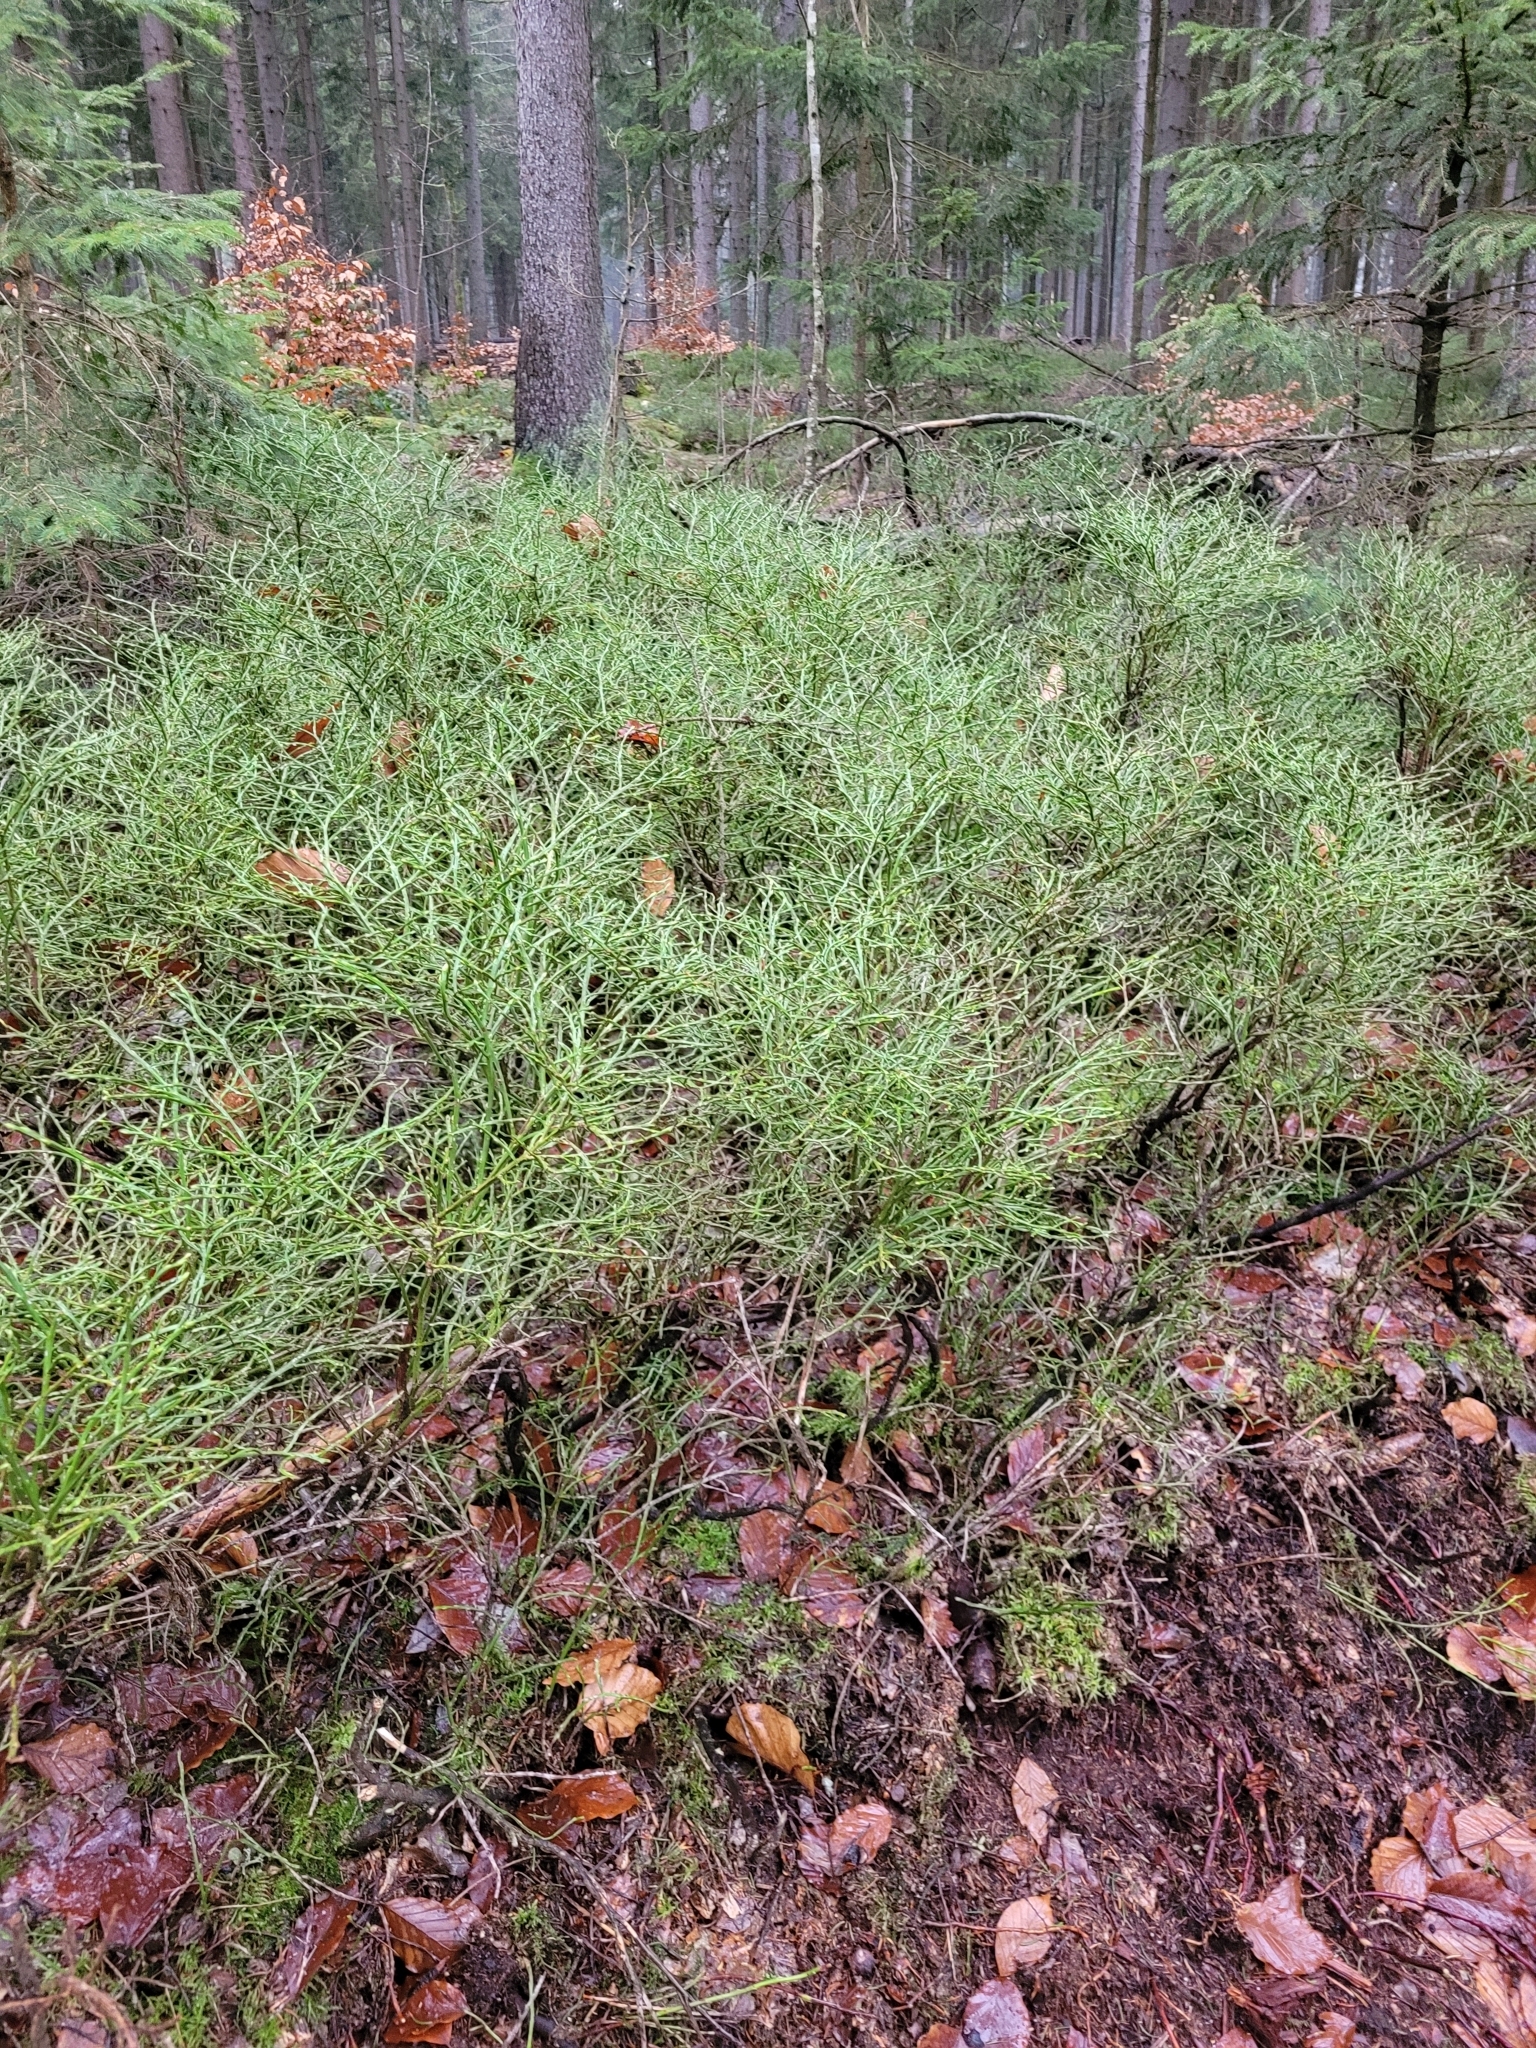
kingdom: Plantae
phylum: Tracheophyta
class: Magnoliopsida
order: Ericales
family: Ericaceae
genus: Vaccinium
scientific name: Vaccinium myrtillus
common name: Bilberry
